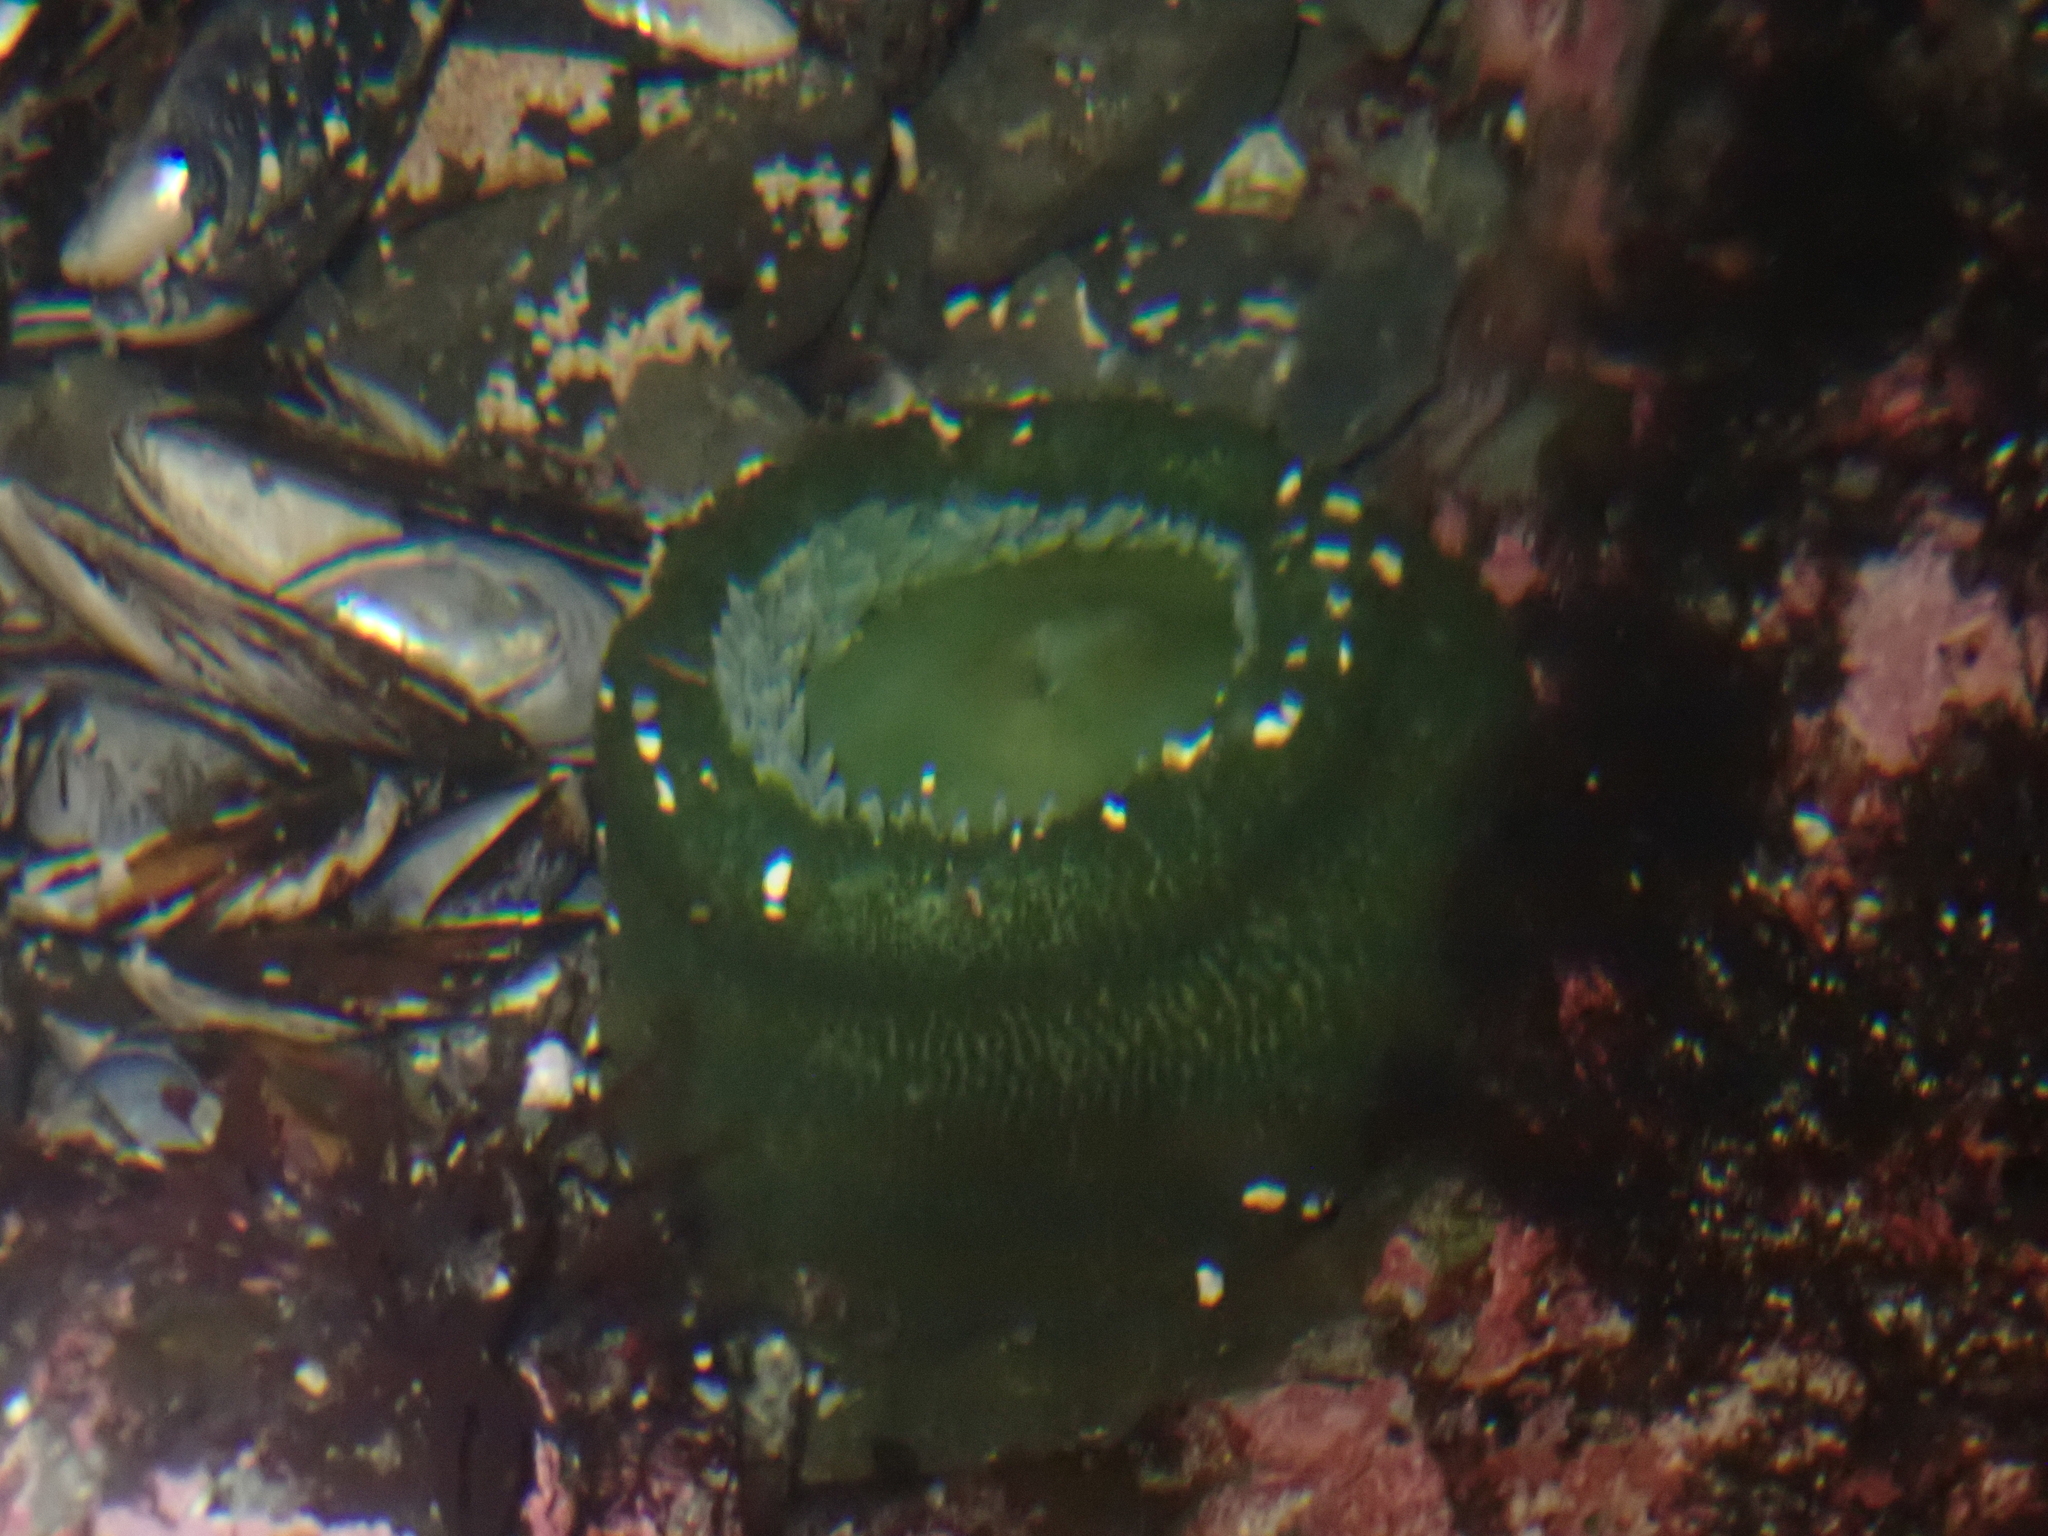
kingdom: Animalia
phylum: Cnidaria
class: Anthozoa
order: Actiniaria
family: Actiniidae
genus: Anthopleura
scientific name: Anthopleura xanthogrammica
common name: Giant green anemone
